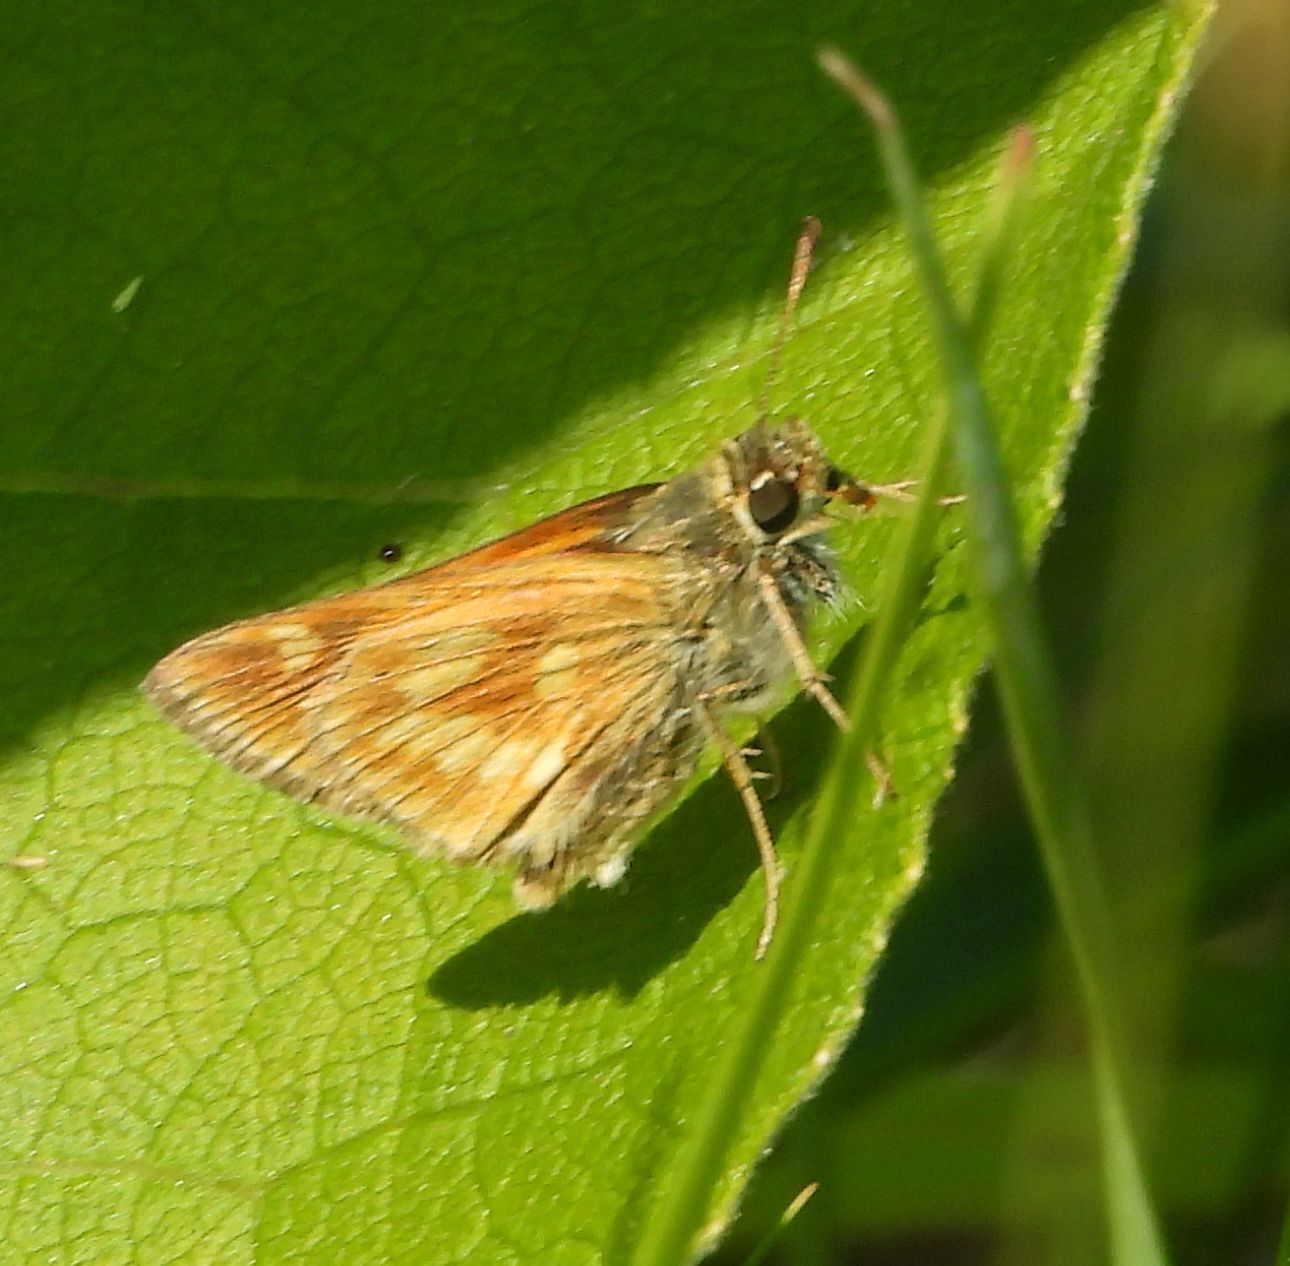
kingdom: Animalia
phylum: Arthropoda
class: Insecta
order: Lepidoptera
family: Hesperiidae
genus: Polites
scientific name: Polites mystic
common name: Long dash
